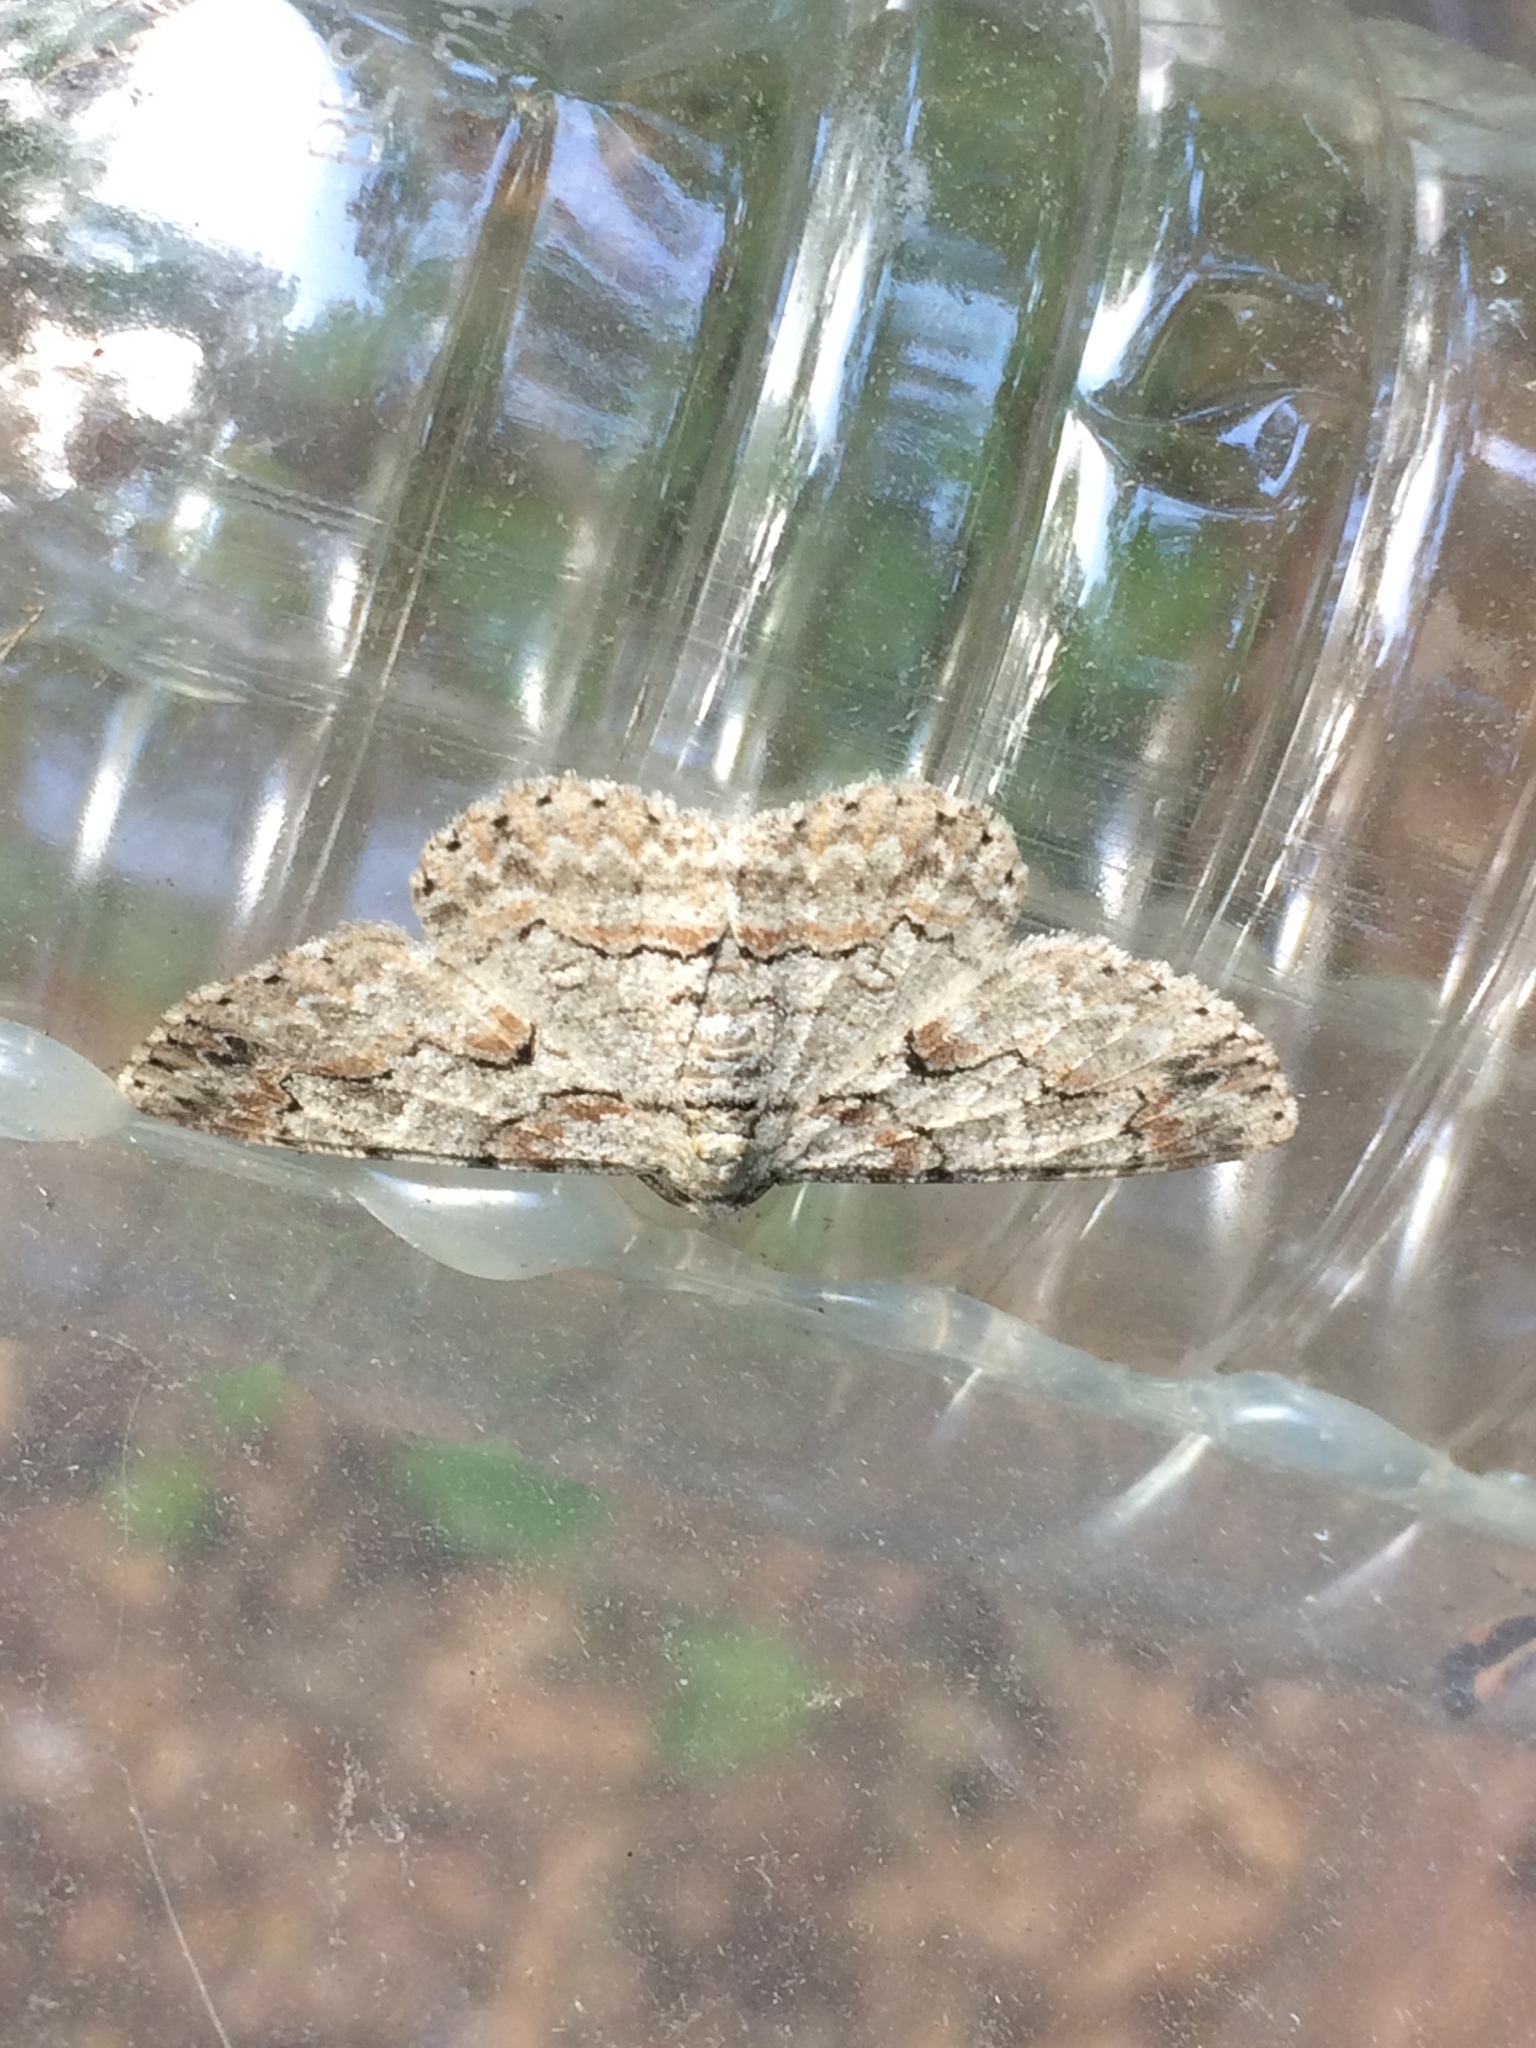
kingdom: Animalia
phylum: Arthropoda
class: Insecta
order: Lepidoptera
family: Geometridae
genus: Iridopsis
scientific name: Iridopsis defectaria
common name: Brown-shaded gray
